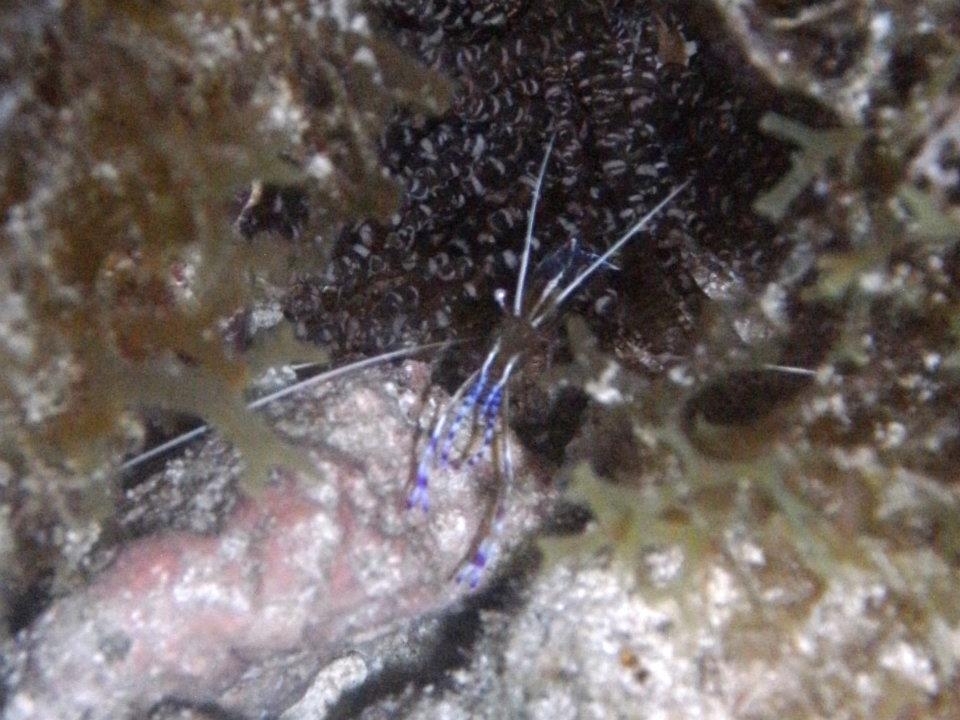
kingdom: Animalia
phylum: Arthropoda
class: Malacostraca
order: Decapoda
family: Palaemonidae
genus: Ancylomenes
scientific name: Ancylomenes pedersoni
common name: Pederson's cleaning shrimp
